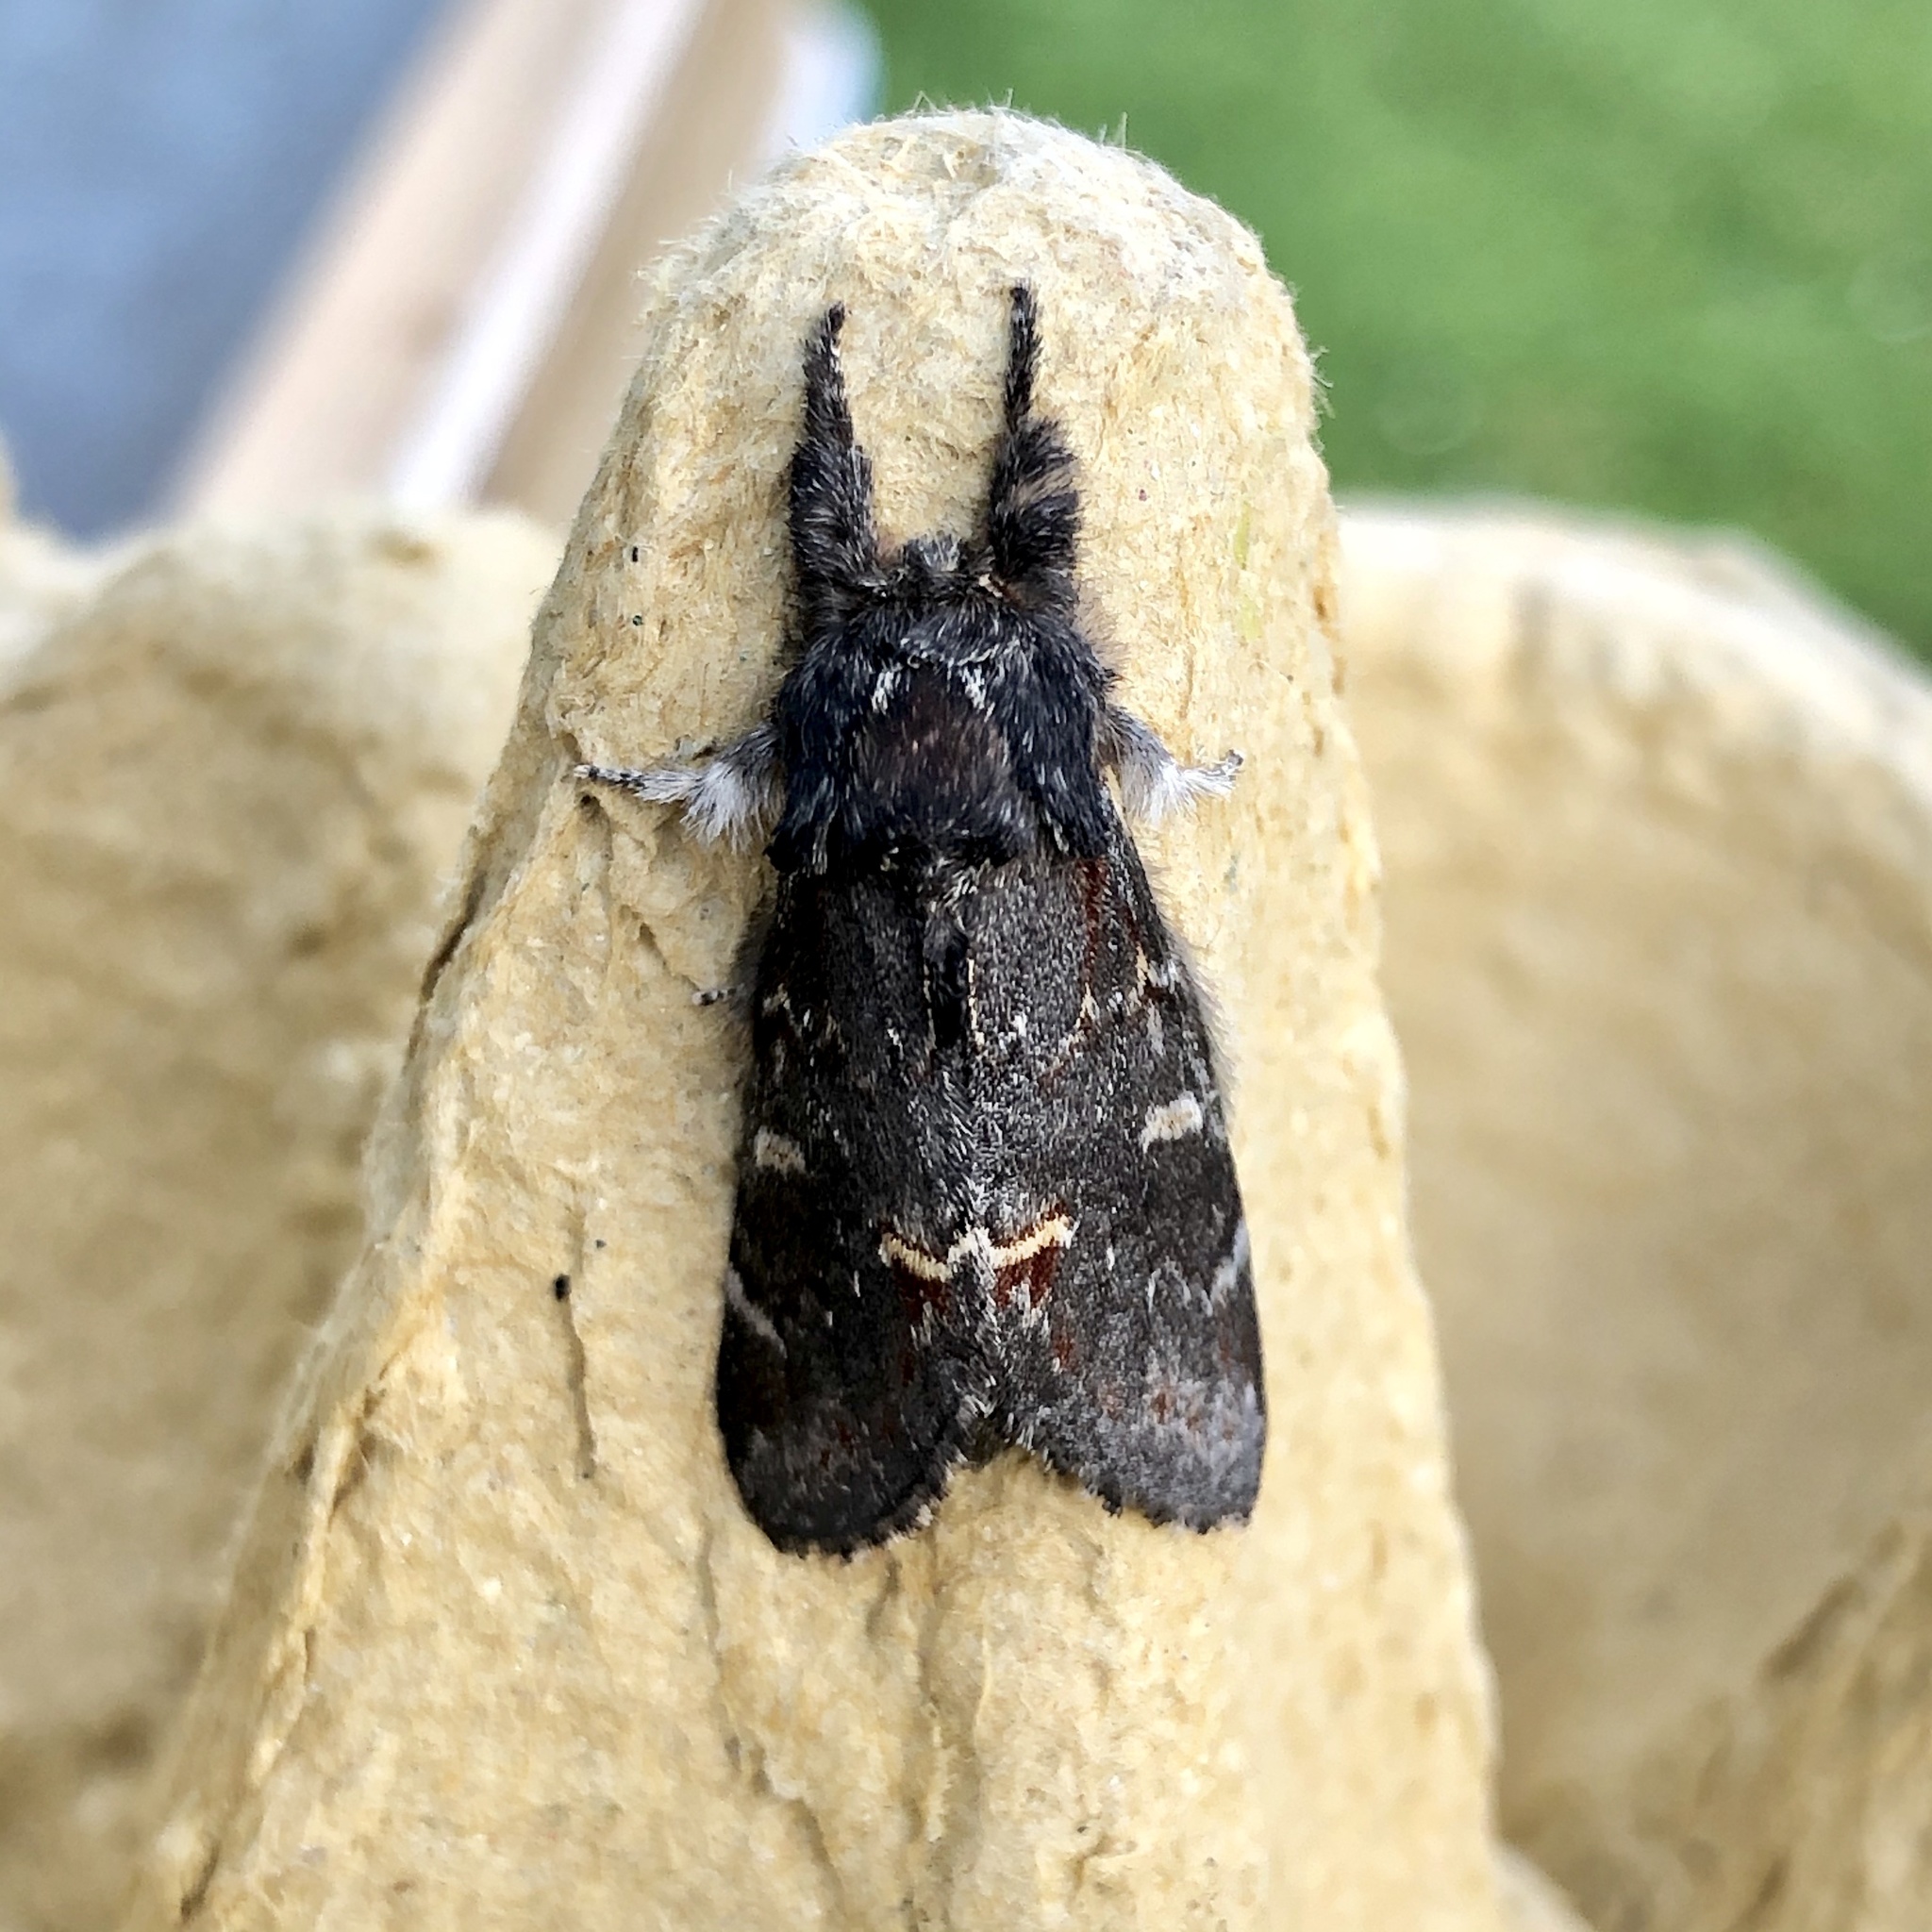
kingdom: Animalia
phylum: Arthropoda
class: Insecta
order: Lepidoptera
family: Notodontidae
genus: Notodonta
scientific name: Notodonta dromedarius
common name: Iron prominent
